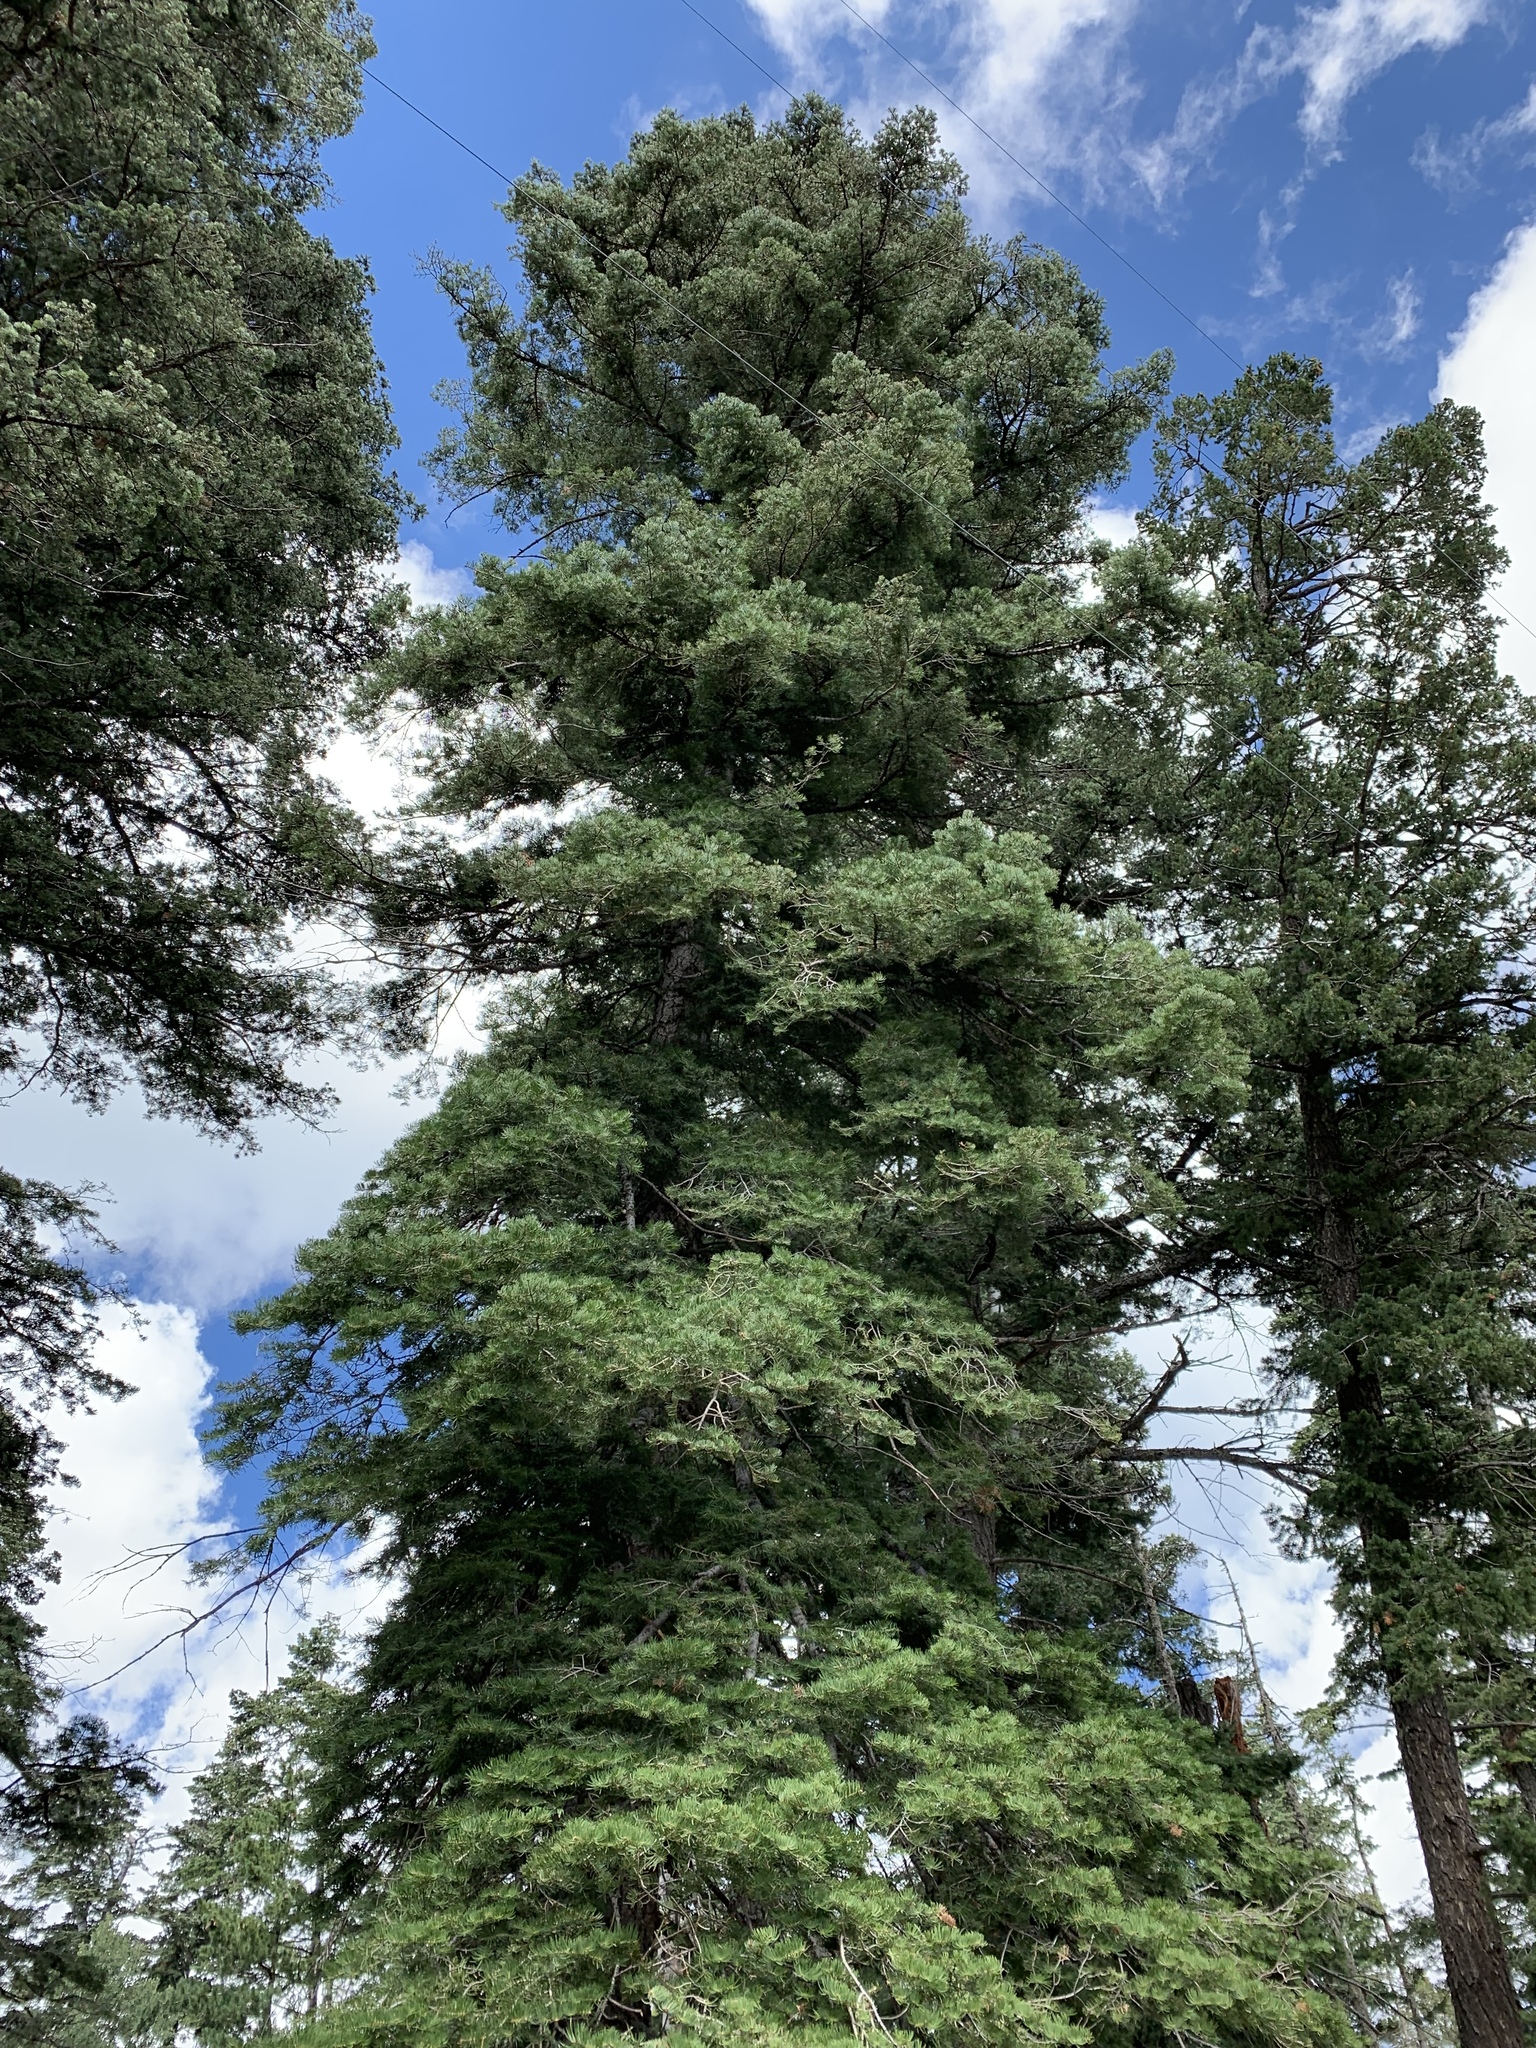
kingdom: Plantae
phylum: Tracheophyta
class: Pinopsida
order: Pinales
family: Pinaceae
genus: Abies
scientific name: Abies concolor
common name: Colorado fir
